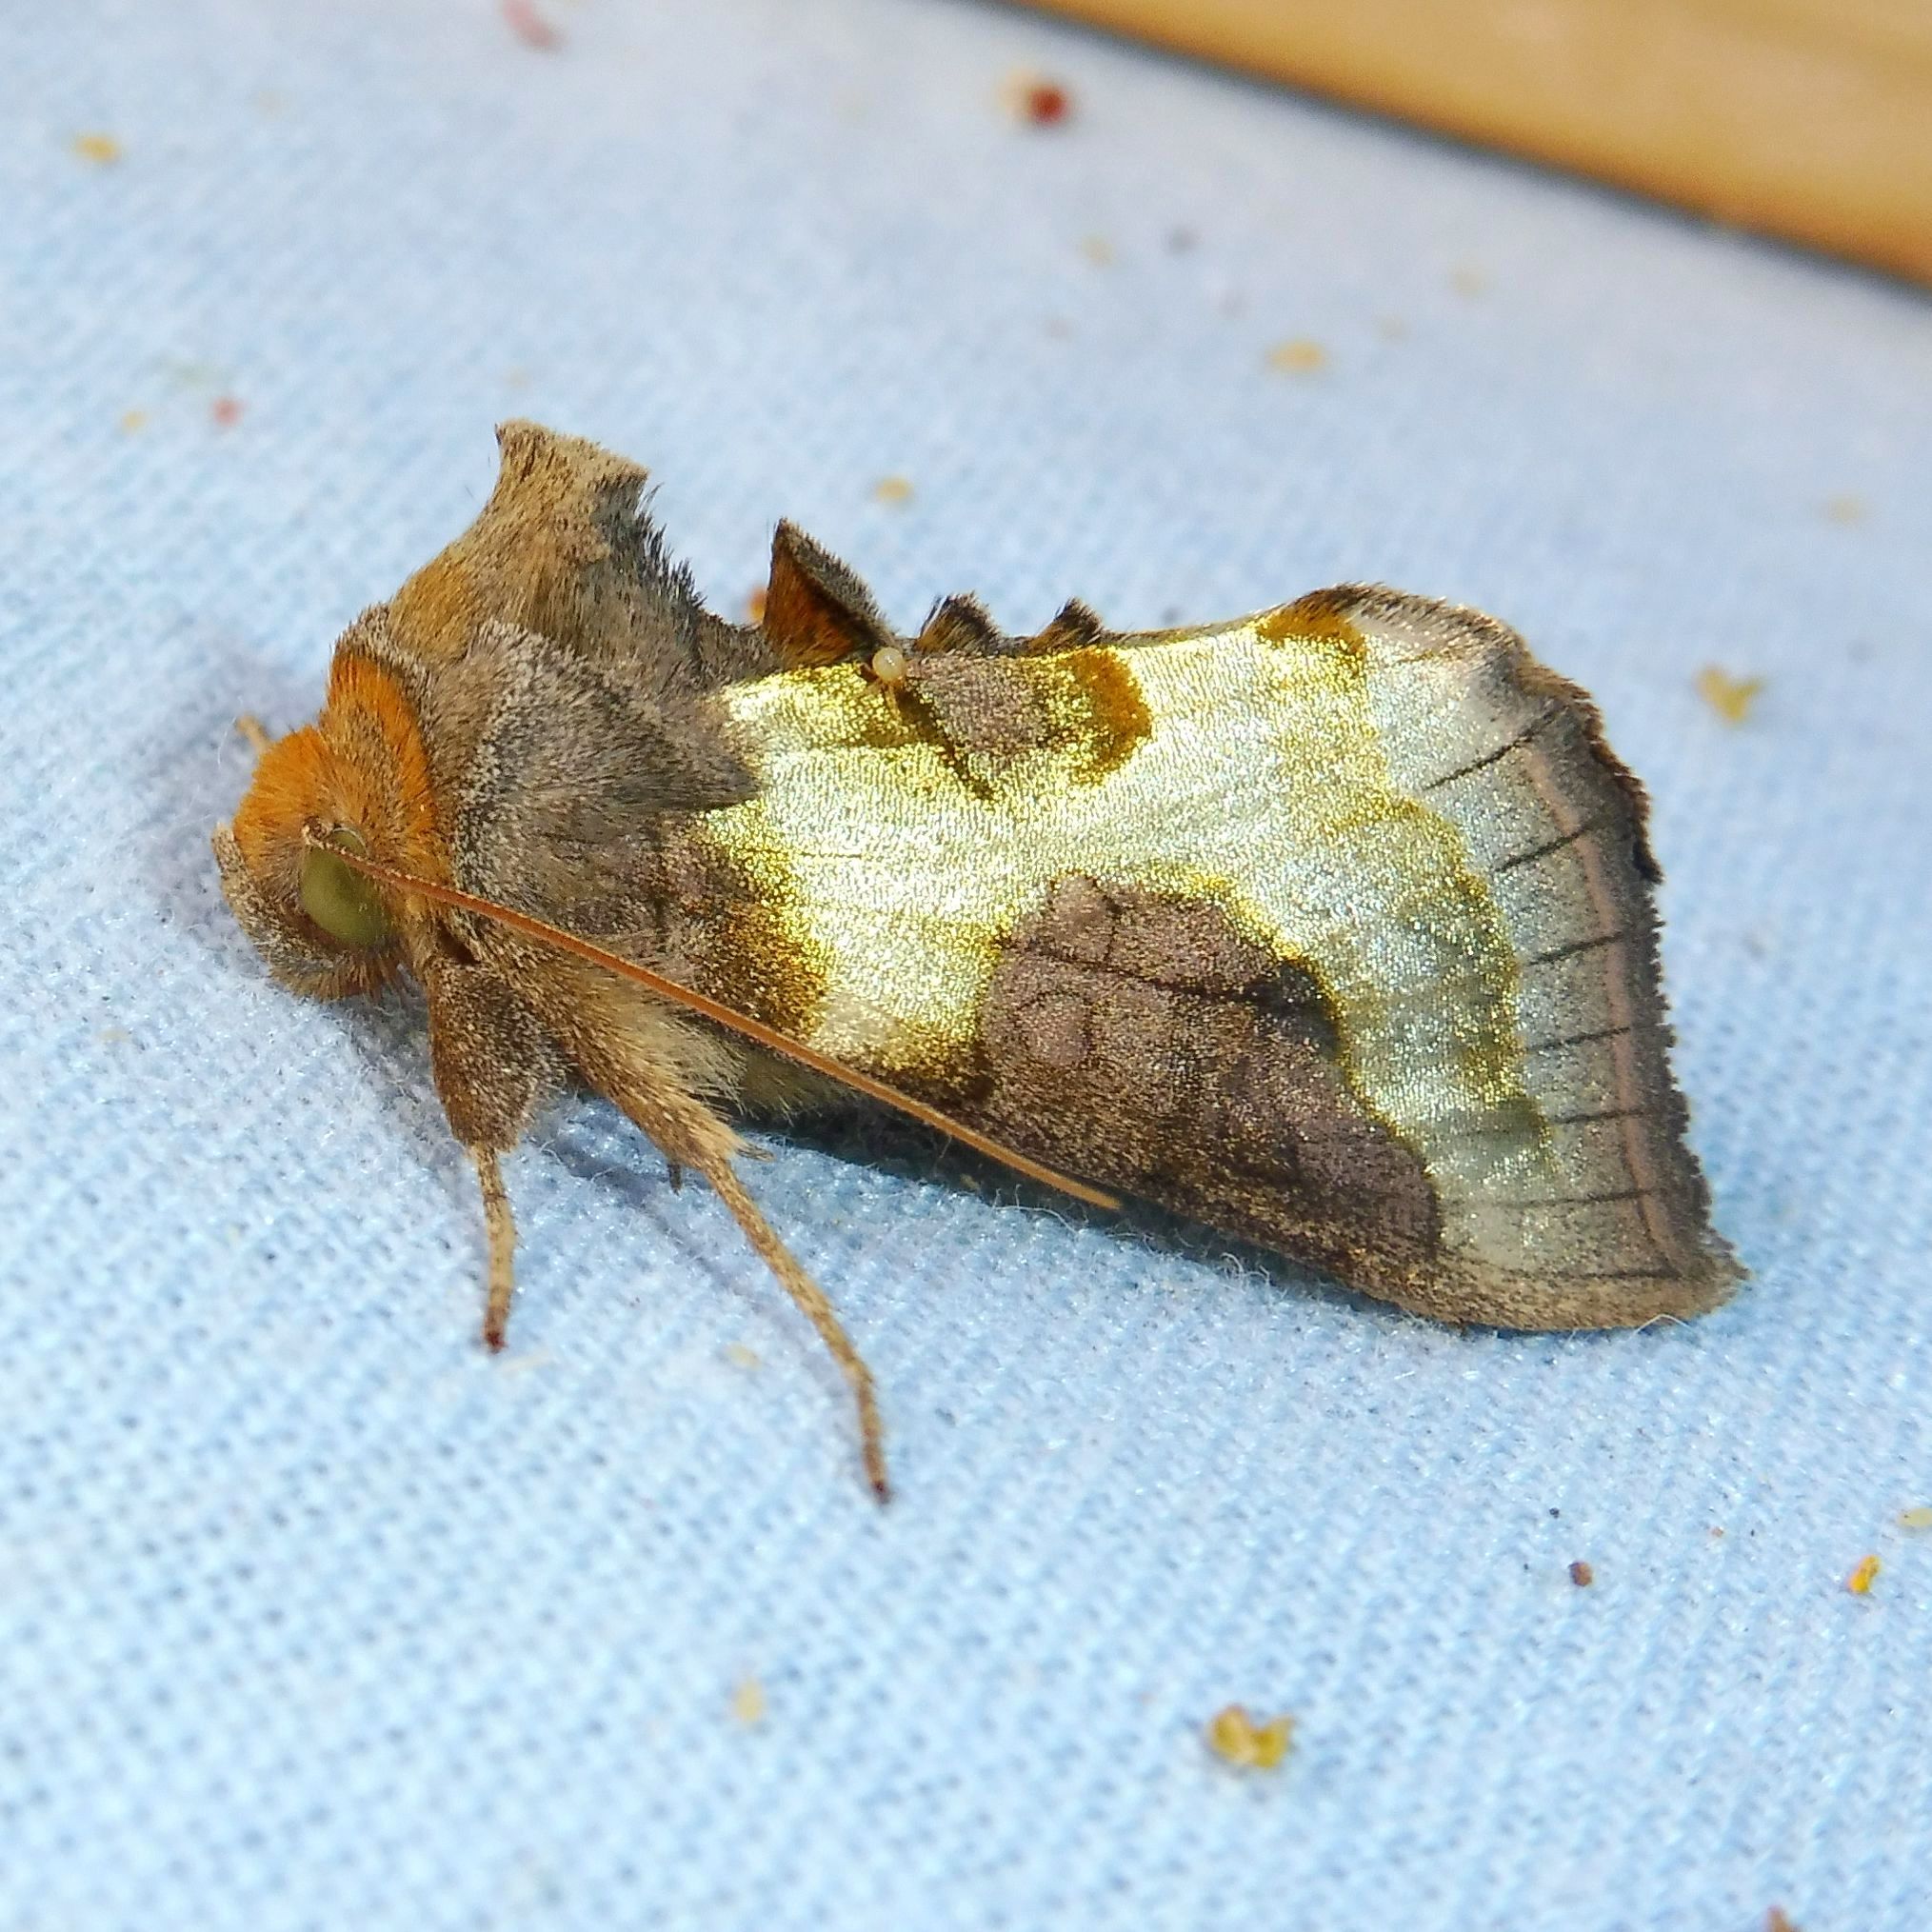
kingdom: Animalia
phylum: Arthropoda
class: Insecta
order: Lepidoptera
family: Noctuidae
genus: Diachrysia
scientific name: Diachrysia chrysitis
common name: Burnished brass
